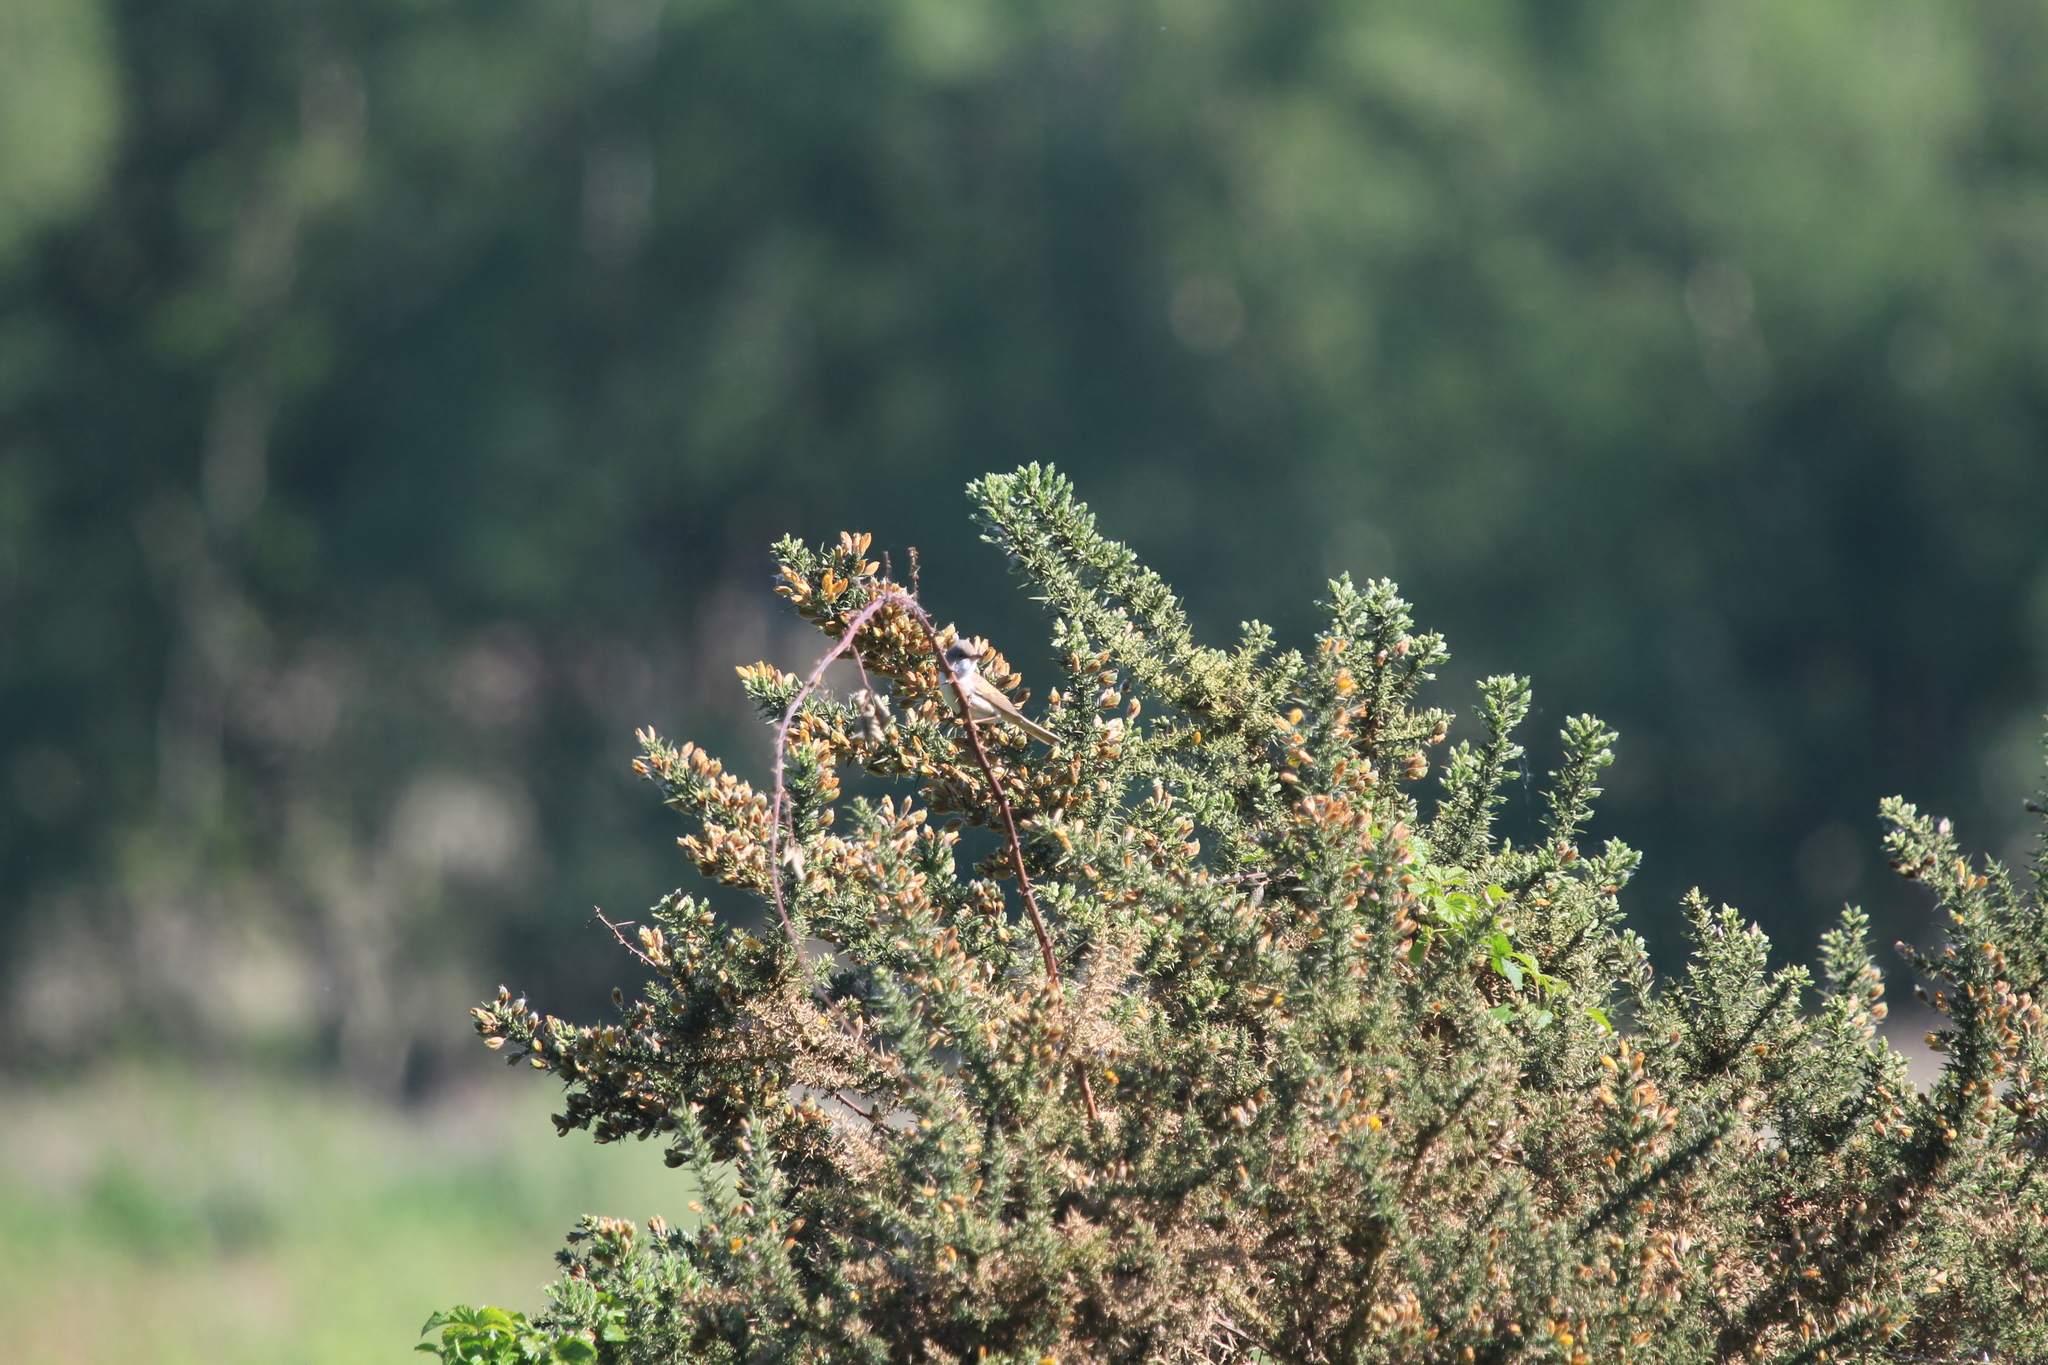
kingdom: Animalia
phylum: Chordata
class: Aves
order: Passeriformes
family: Sylviidae
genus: Sylvia
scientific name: Sylvia communis
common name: Common whitethroat
